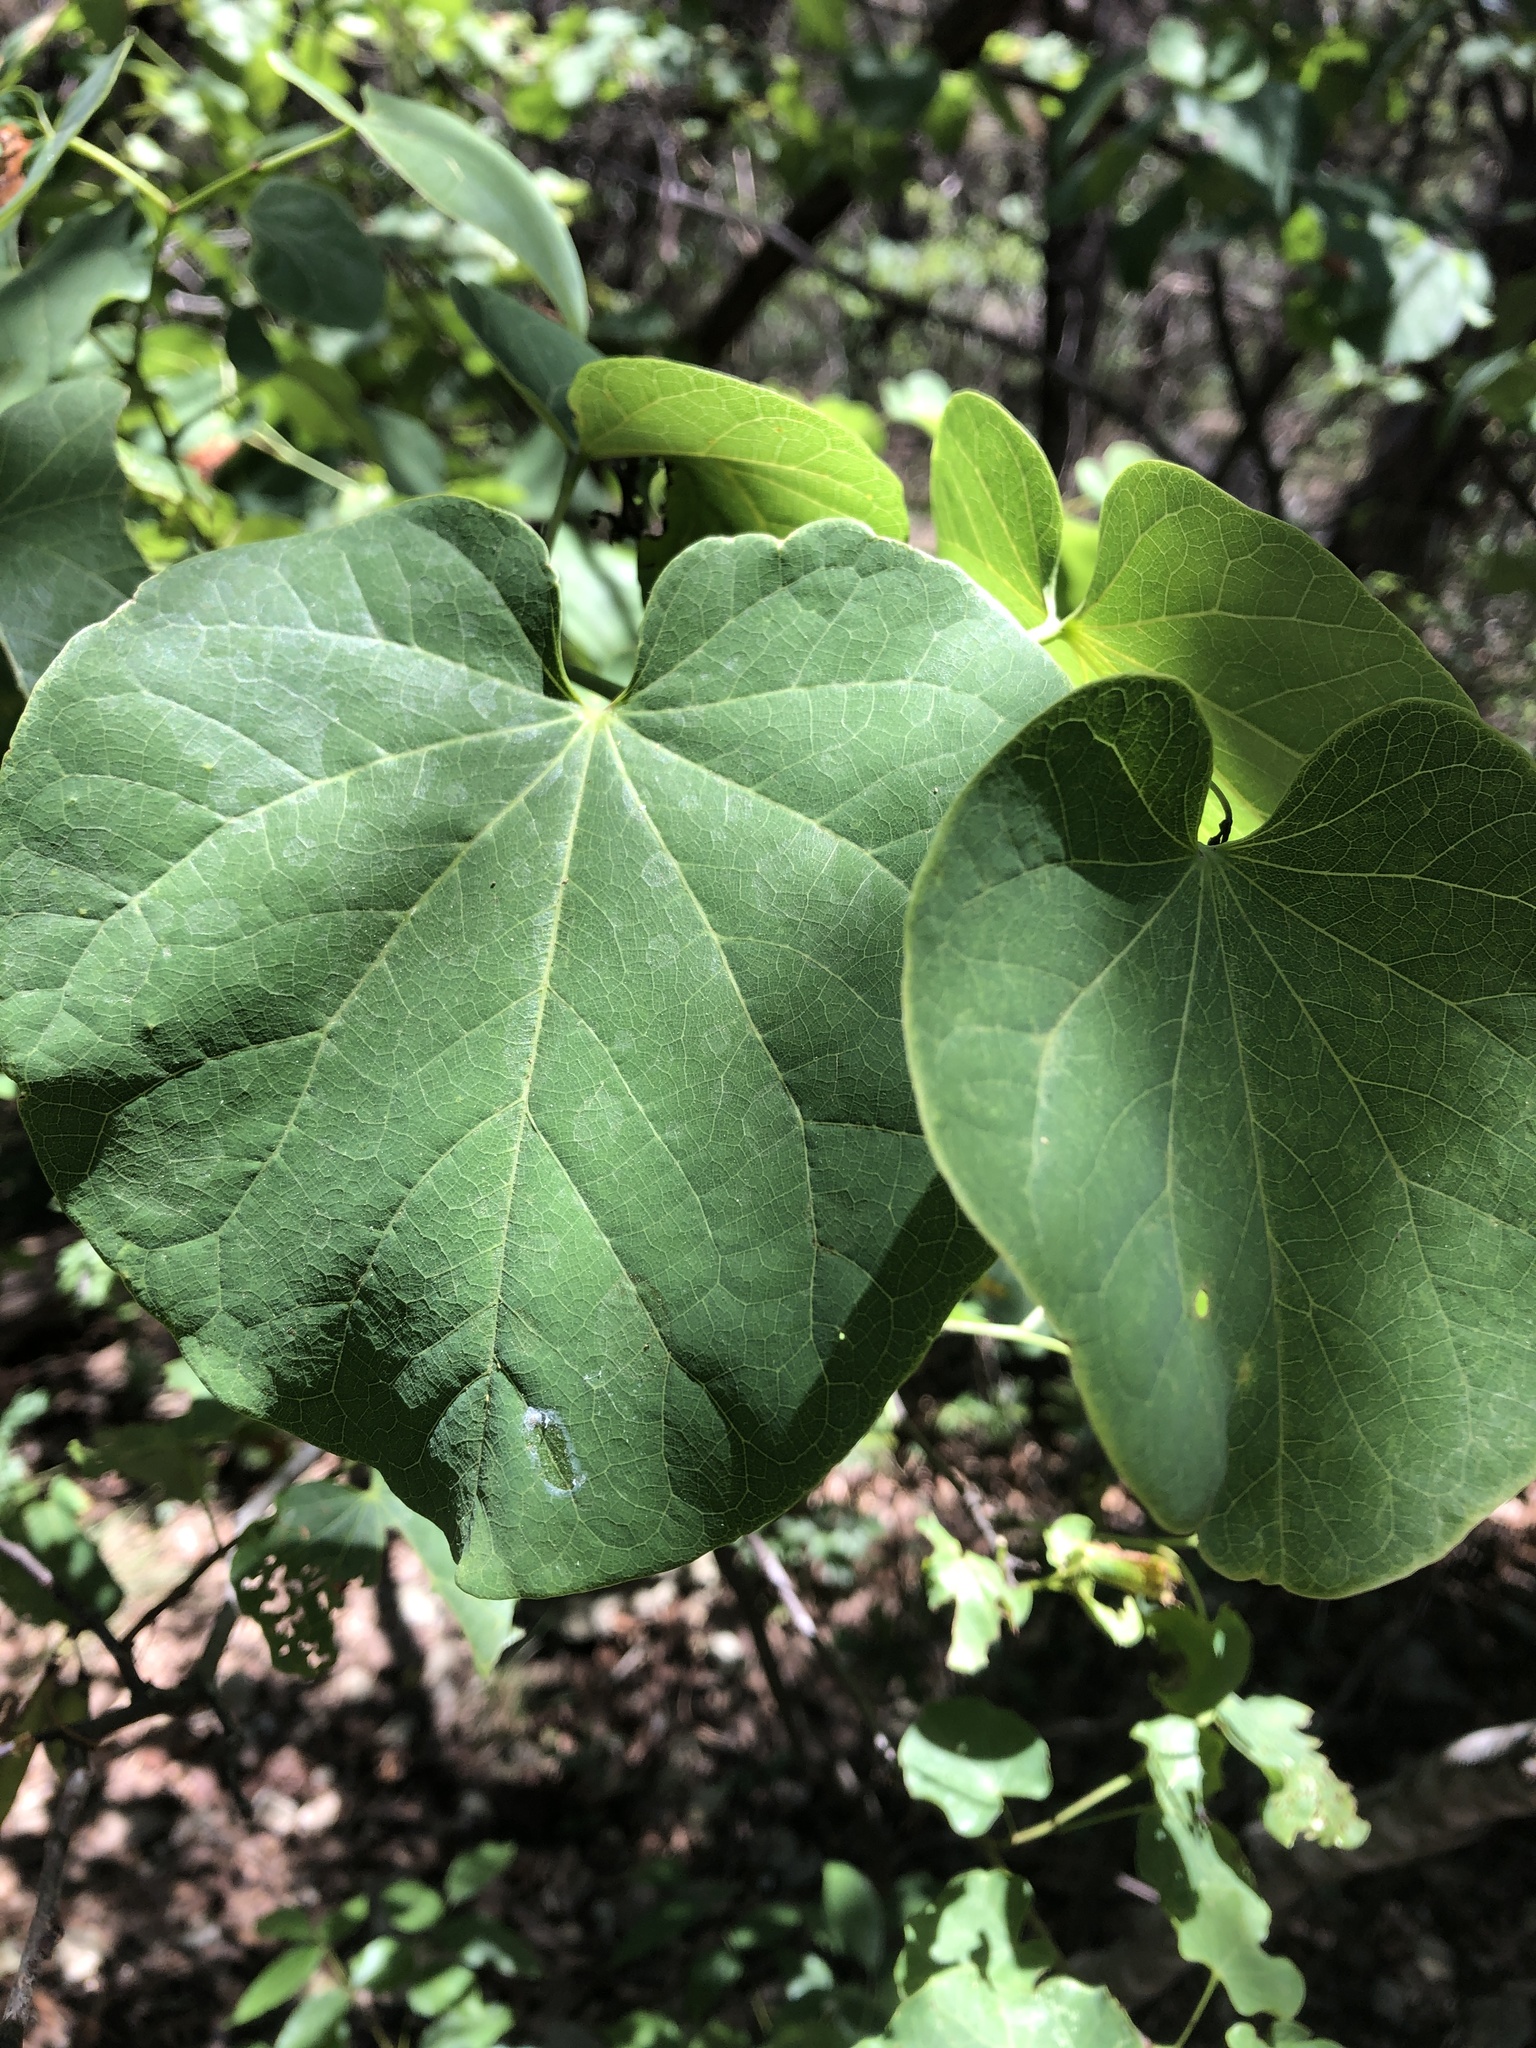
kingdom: Plantae
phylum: Tracheophyta
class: Magnoliopsida
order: Fabales
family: Fabaceae
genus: Cercis
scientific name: Cercis canadensis
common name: Eastern redbud
